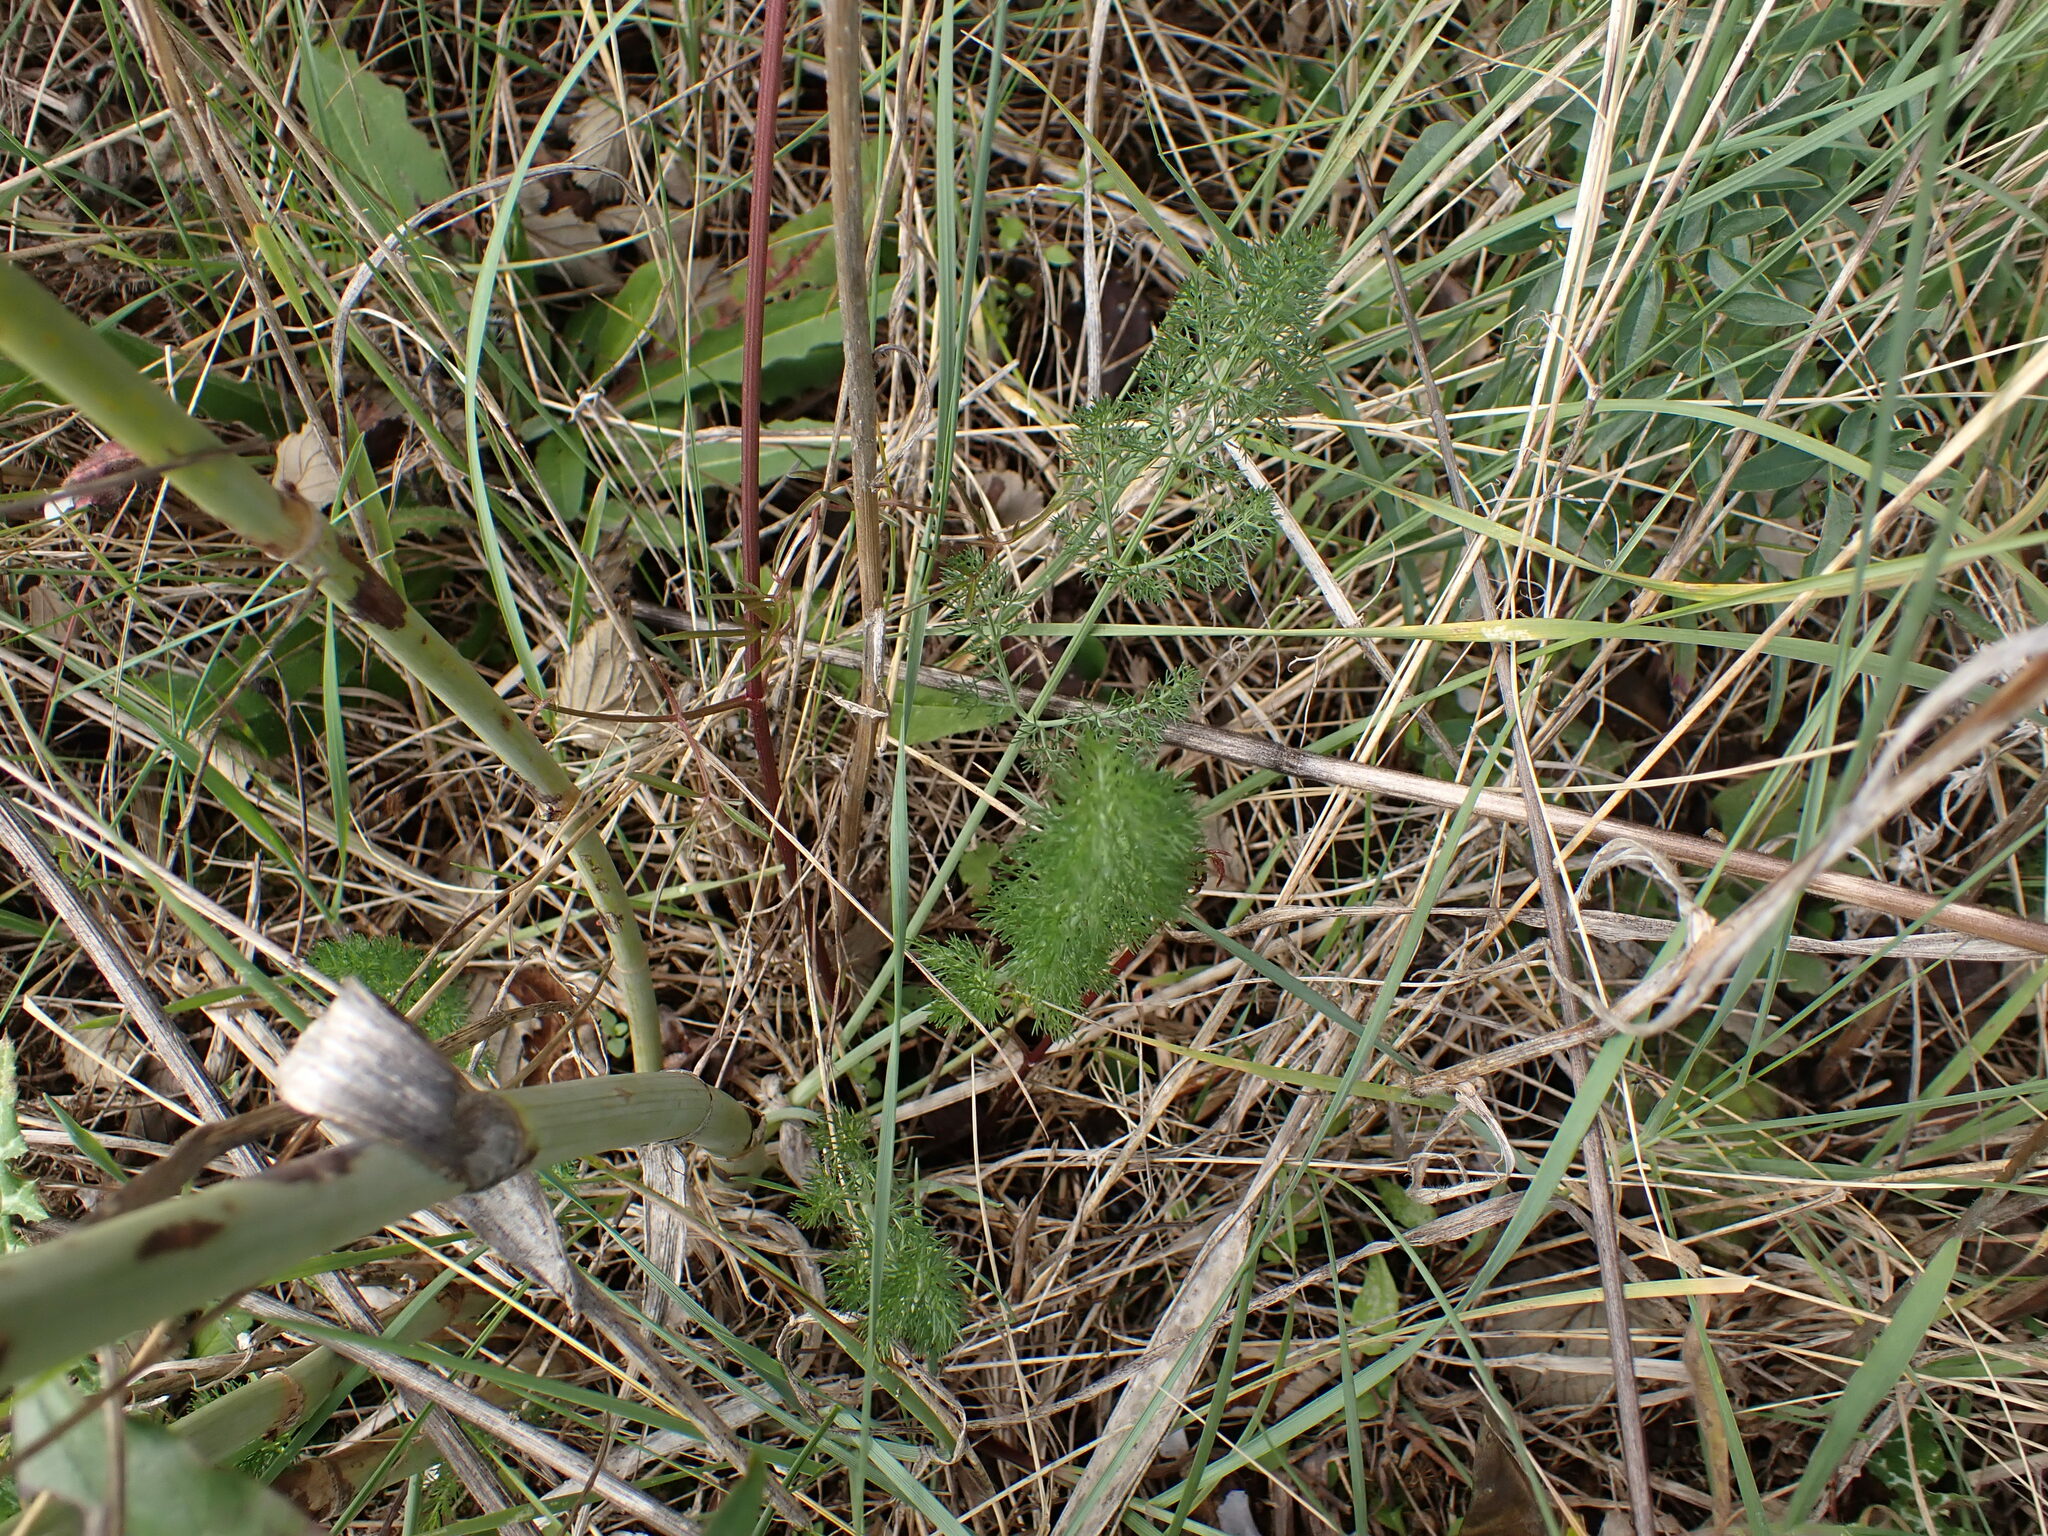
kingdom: Plantae
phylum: Tracheophyta
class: Magnoliopsida
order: Apiales
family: Apiaceae
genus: Foeniculum
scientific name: Foeniculum vulgare
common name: Fennel
